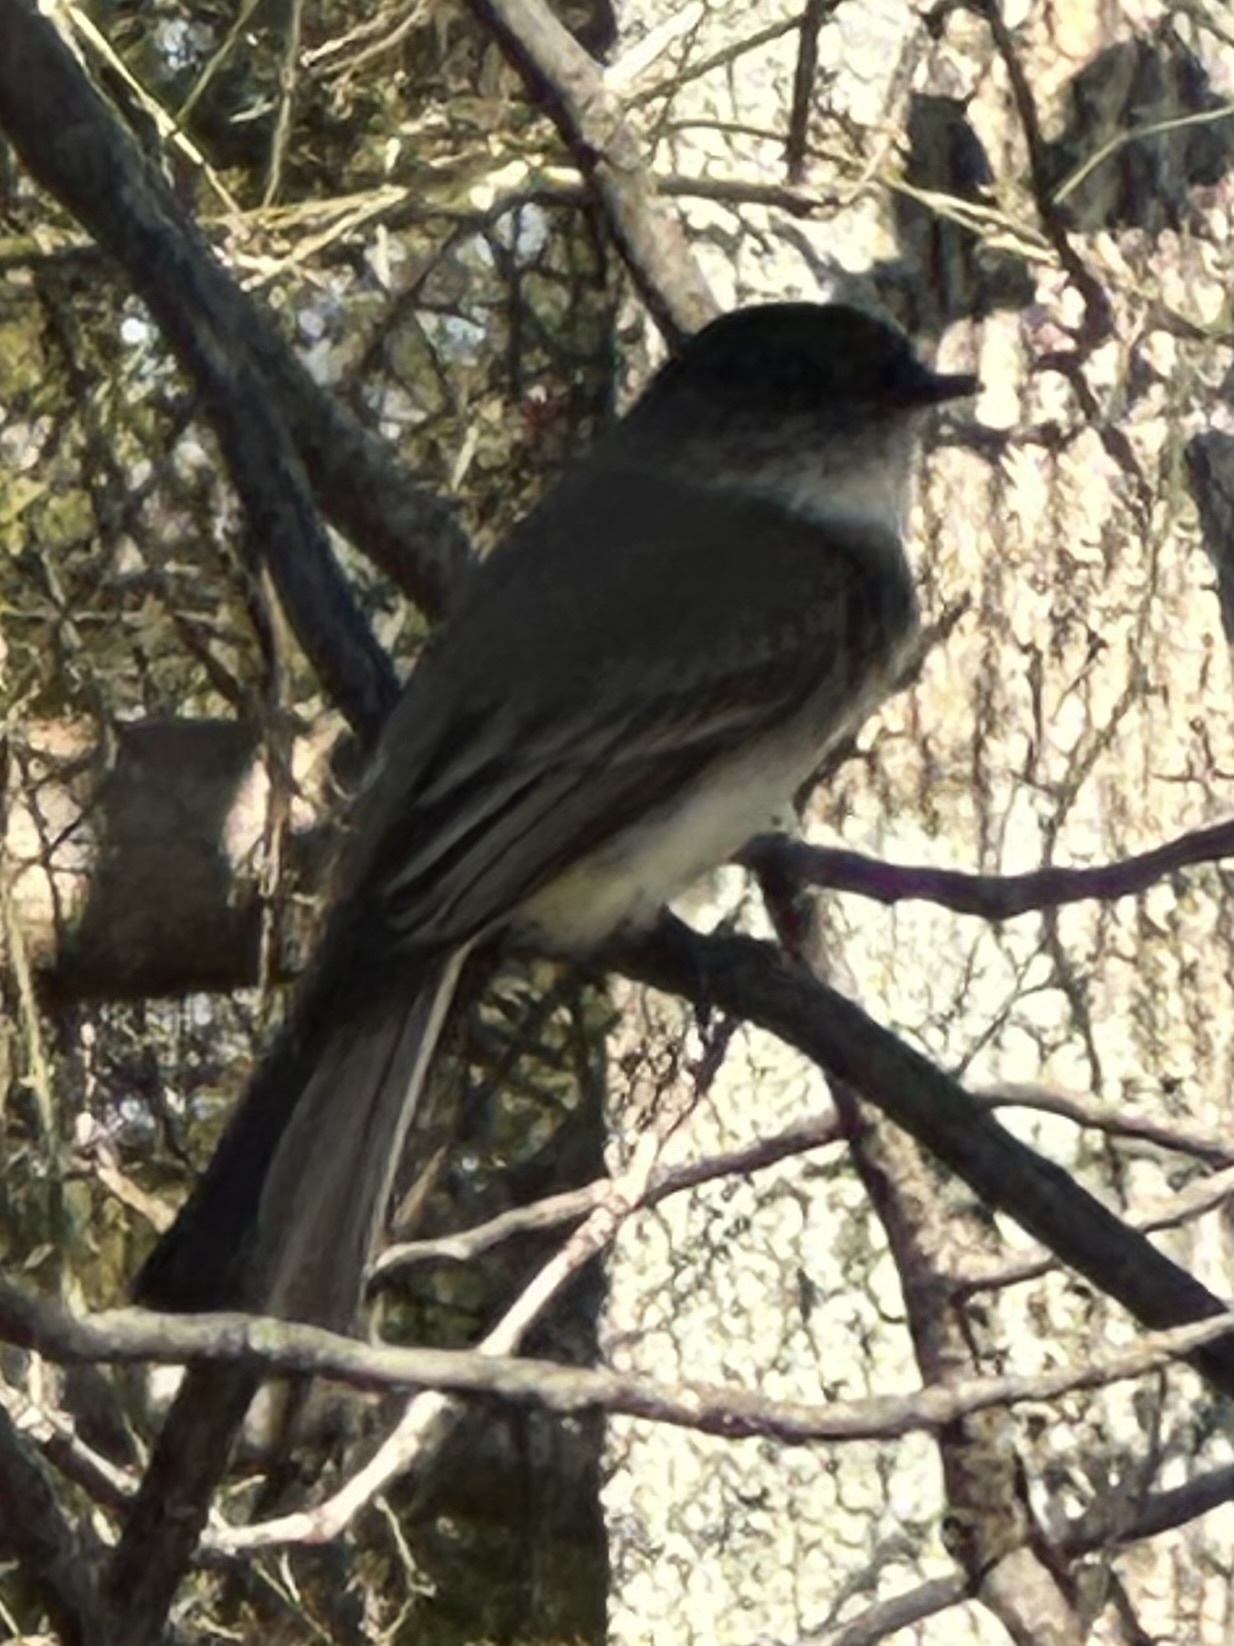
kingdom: Animalia
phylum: Chordata
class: Aves
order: Passeriformes
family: Tyrannidae
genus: Sayornis
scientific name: Sayornis phoebe
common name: Eastern phoebe
